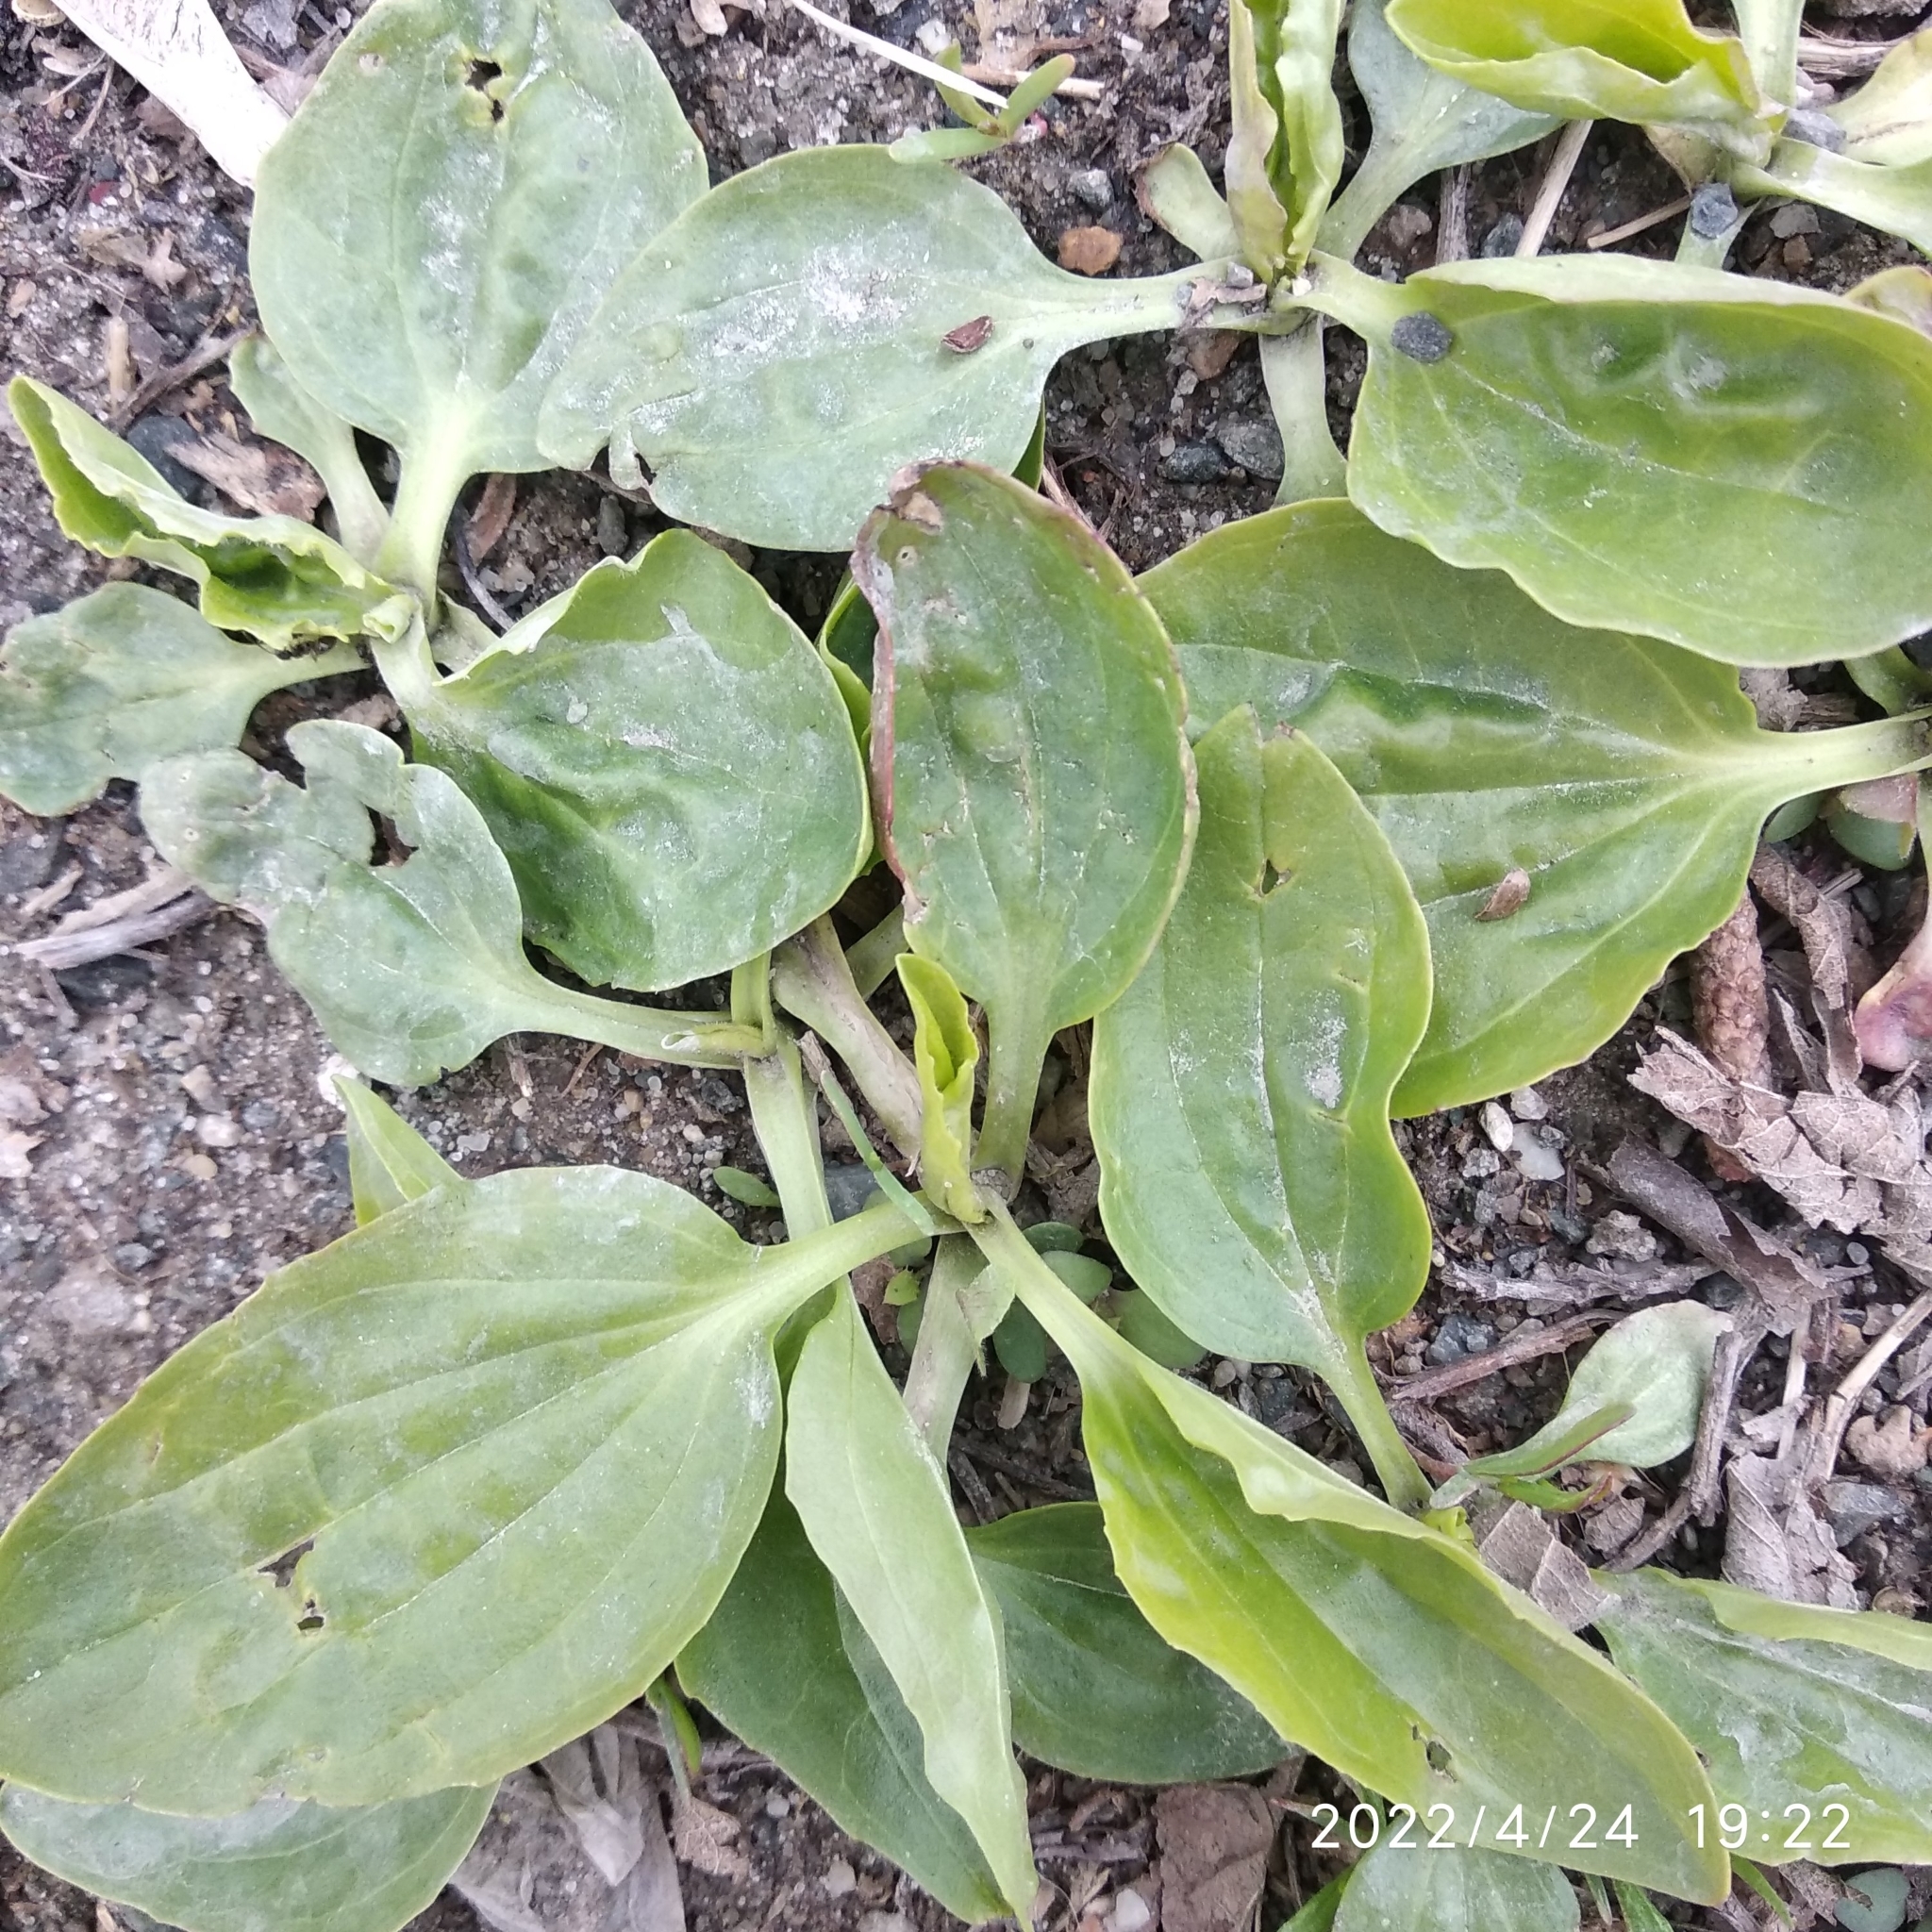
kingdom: Plantae
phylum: Tracheophyta
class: Magnoliopsida
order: Lamiales
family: Plantaginaceae
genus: Plantago
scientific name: Plantago major
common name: Common plantain
